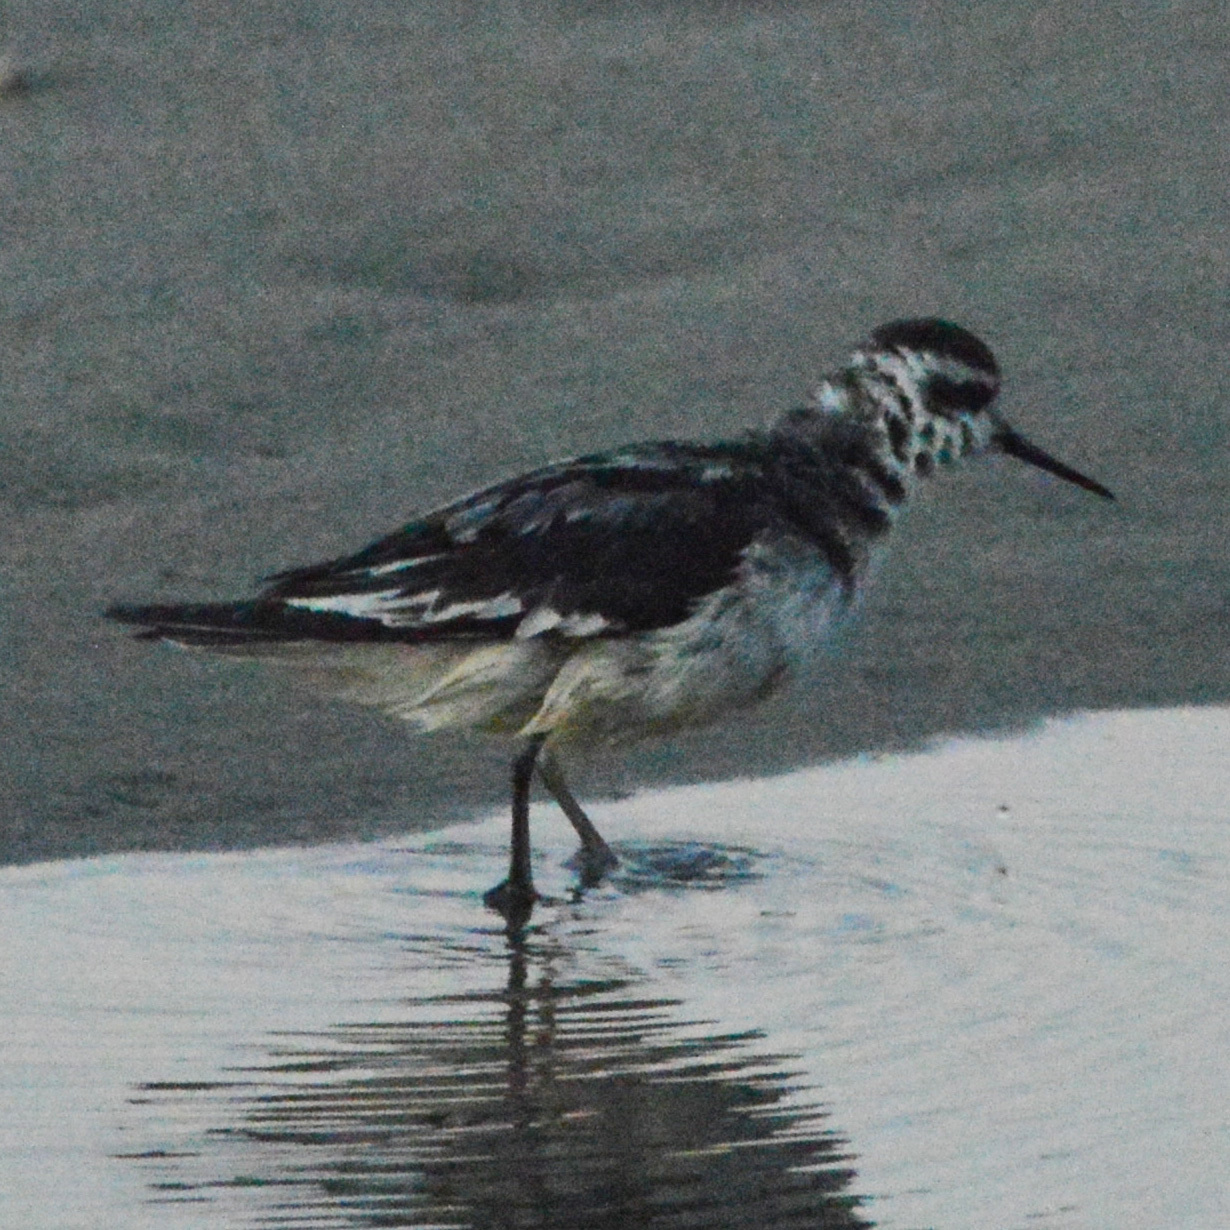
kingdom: Animalia
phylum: Chordata
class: Aves
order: Charadriiformes
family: Scolopacidae
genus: Phalaropus
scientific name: Phalaropus lobatus
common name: Red-necked phalarope
